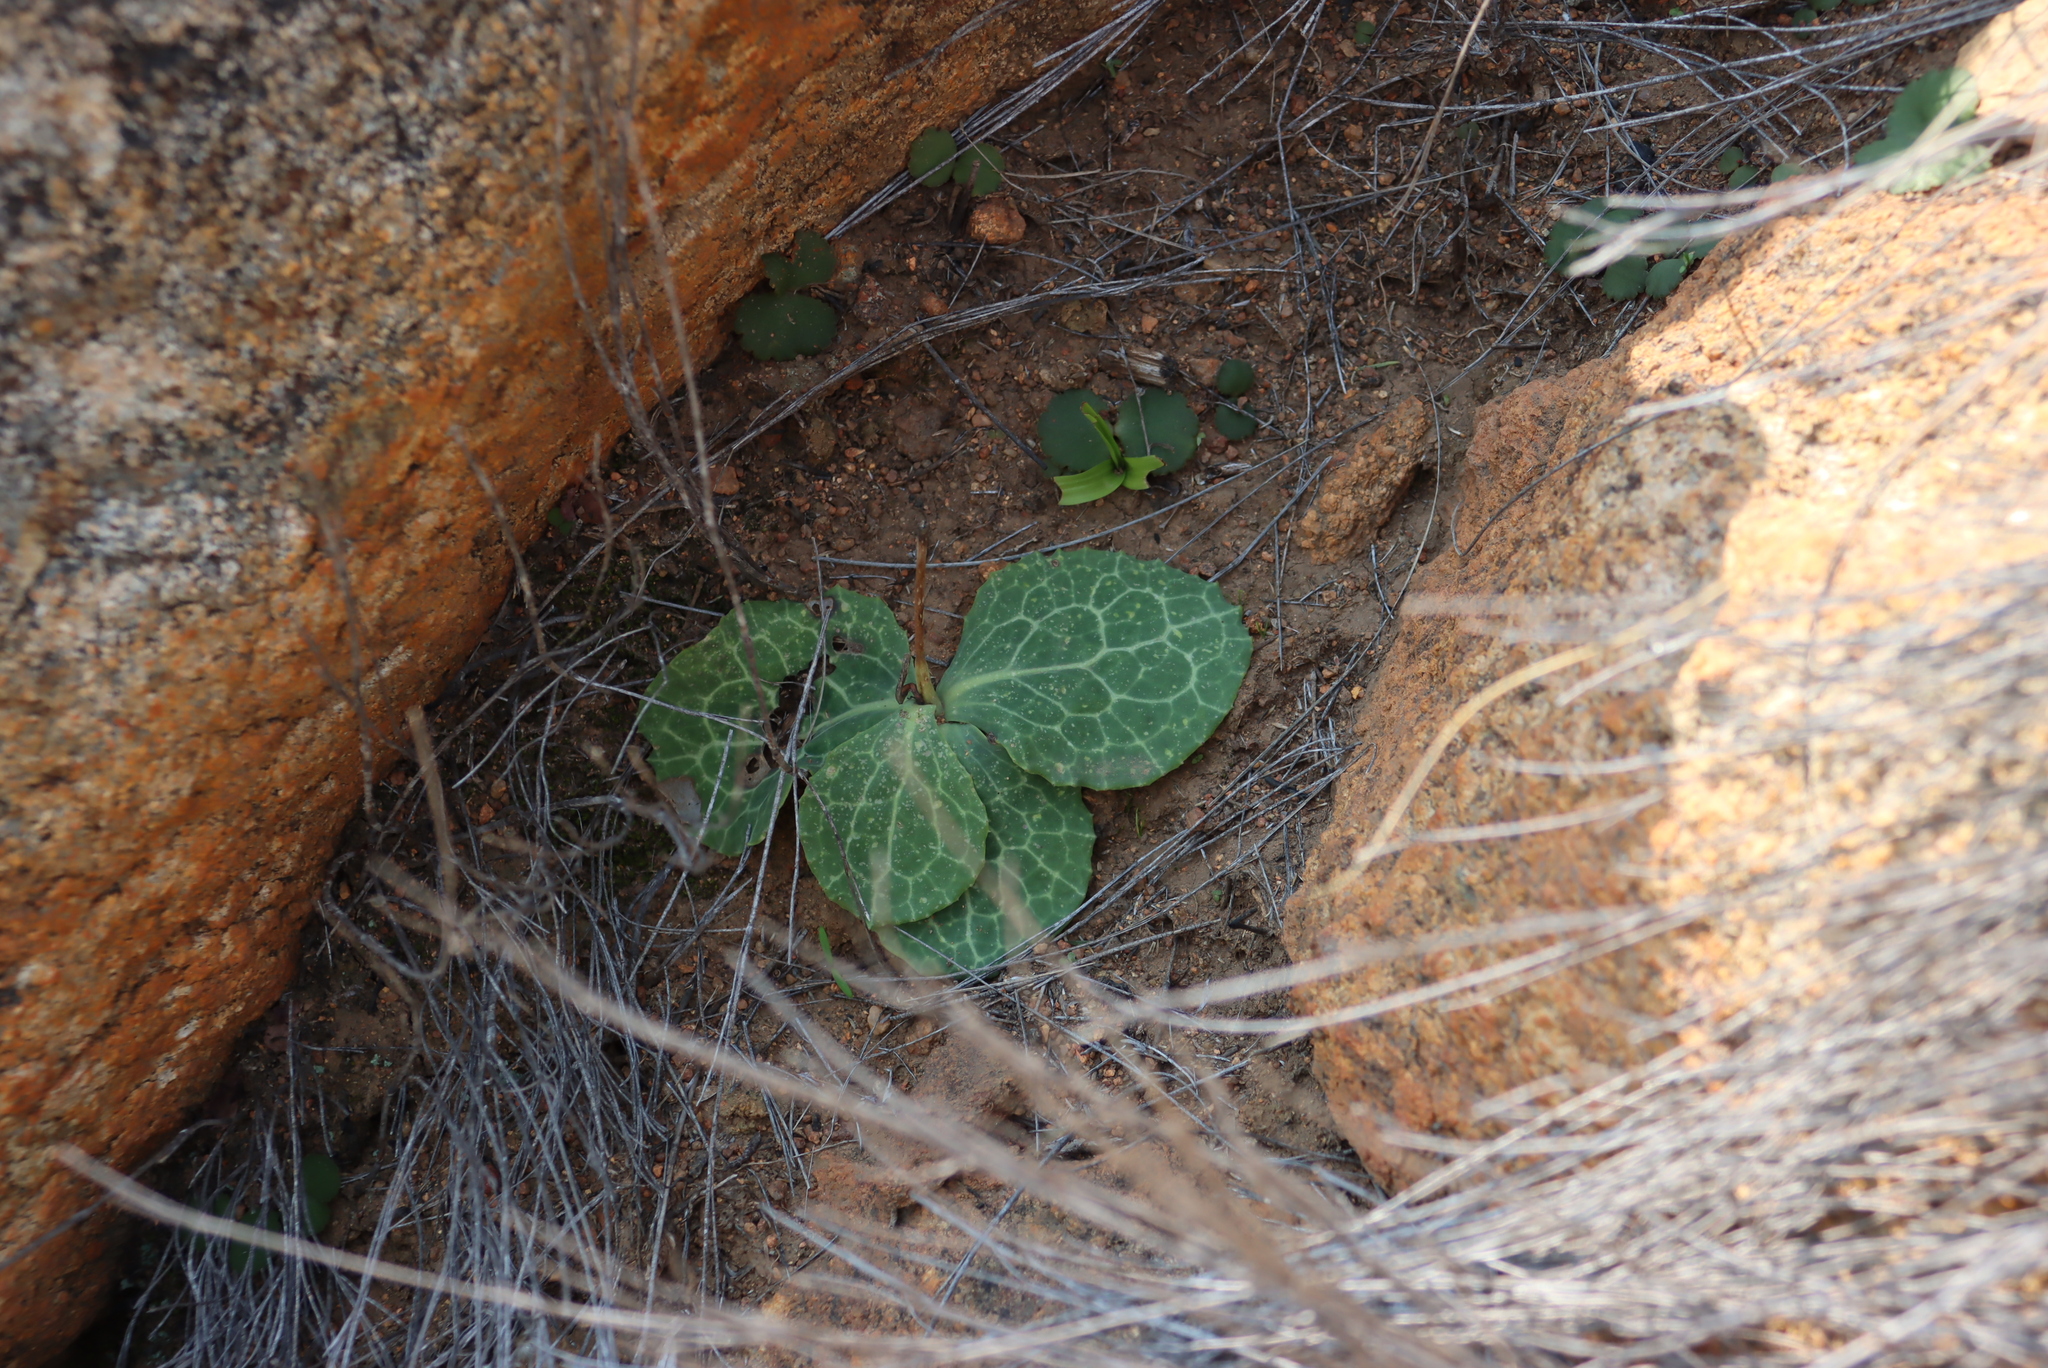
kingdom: Plantae
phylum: Tracheophyta
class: Magnoliopsida
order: Asterales
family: Asteraceae
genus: Othonna
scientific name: Othonna macrophylla
